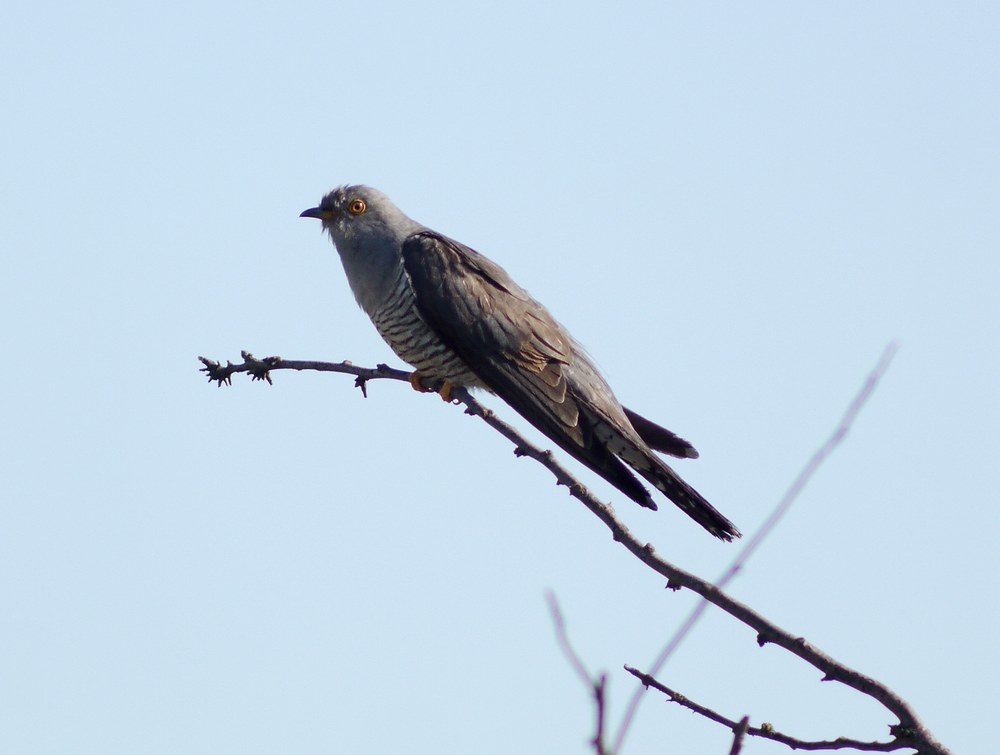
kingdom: Animalia
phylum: Chordata
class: Aves
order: Cuculiformes
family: Cuculidae
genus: Cuculus
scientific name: Cuculus canorus
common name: Common cuckoo
